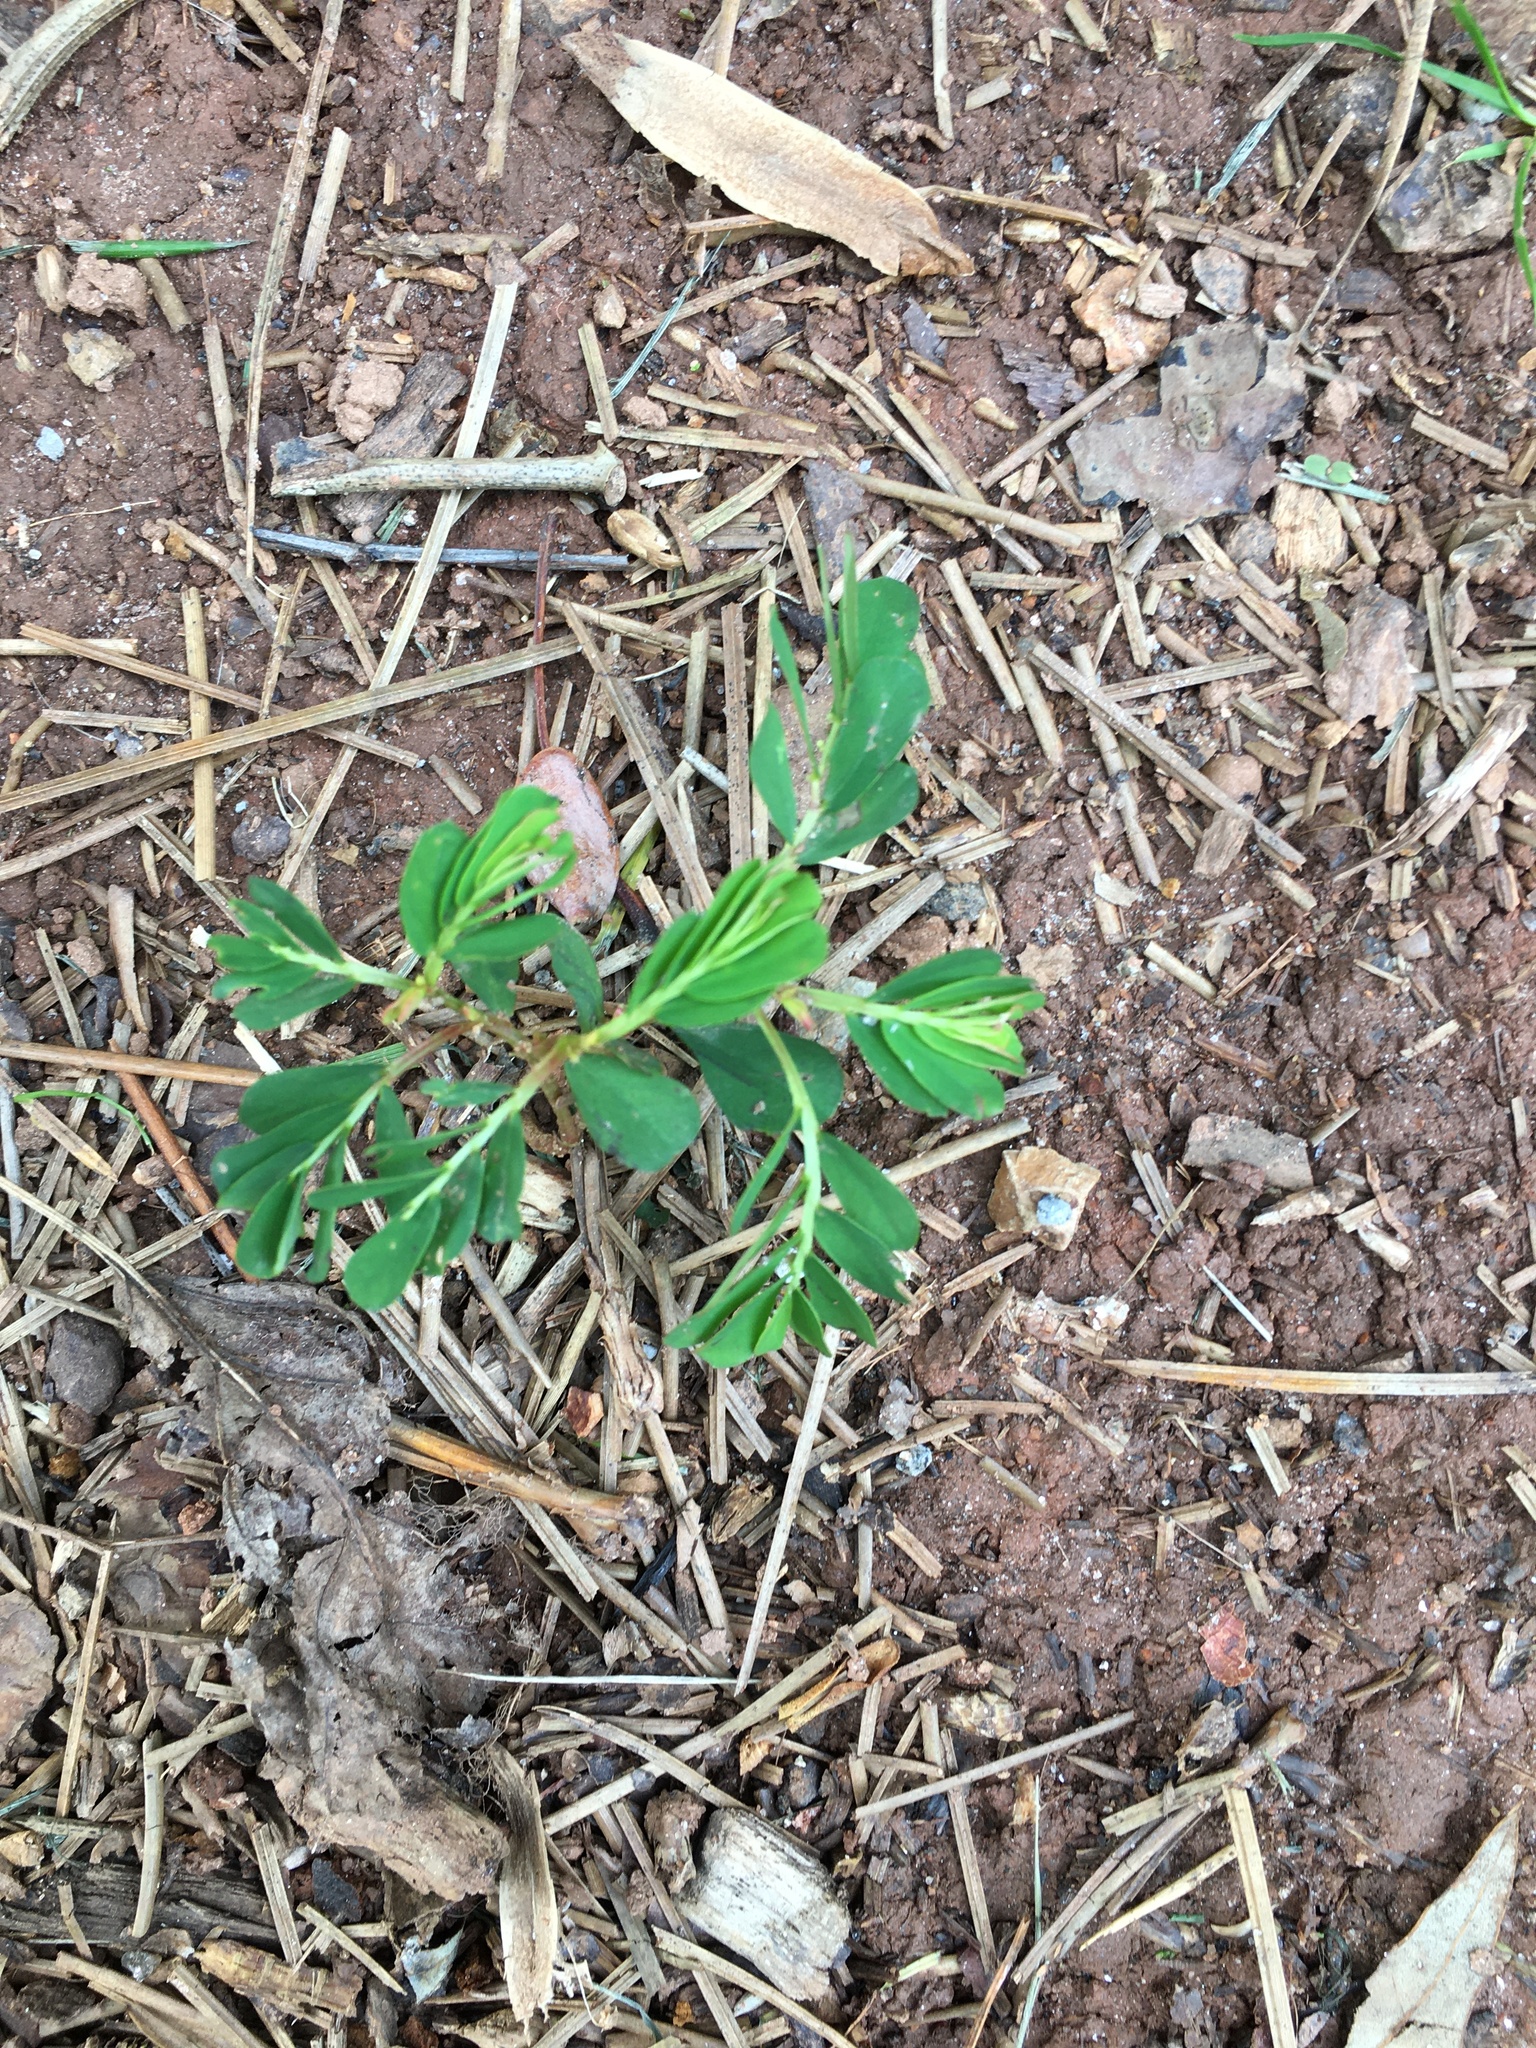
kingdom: Plantae
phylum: Tracheophyta
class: Magnoliopsida
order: Malpighiales
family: Phyllanthaceae
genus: Phyllanthus
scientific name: Phyllanthus urinaria
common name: Chamber bitter
